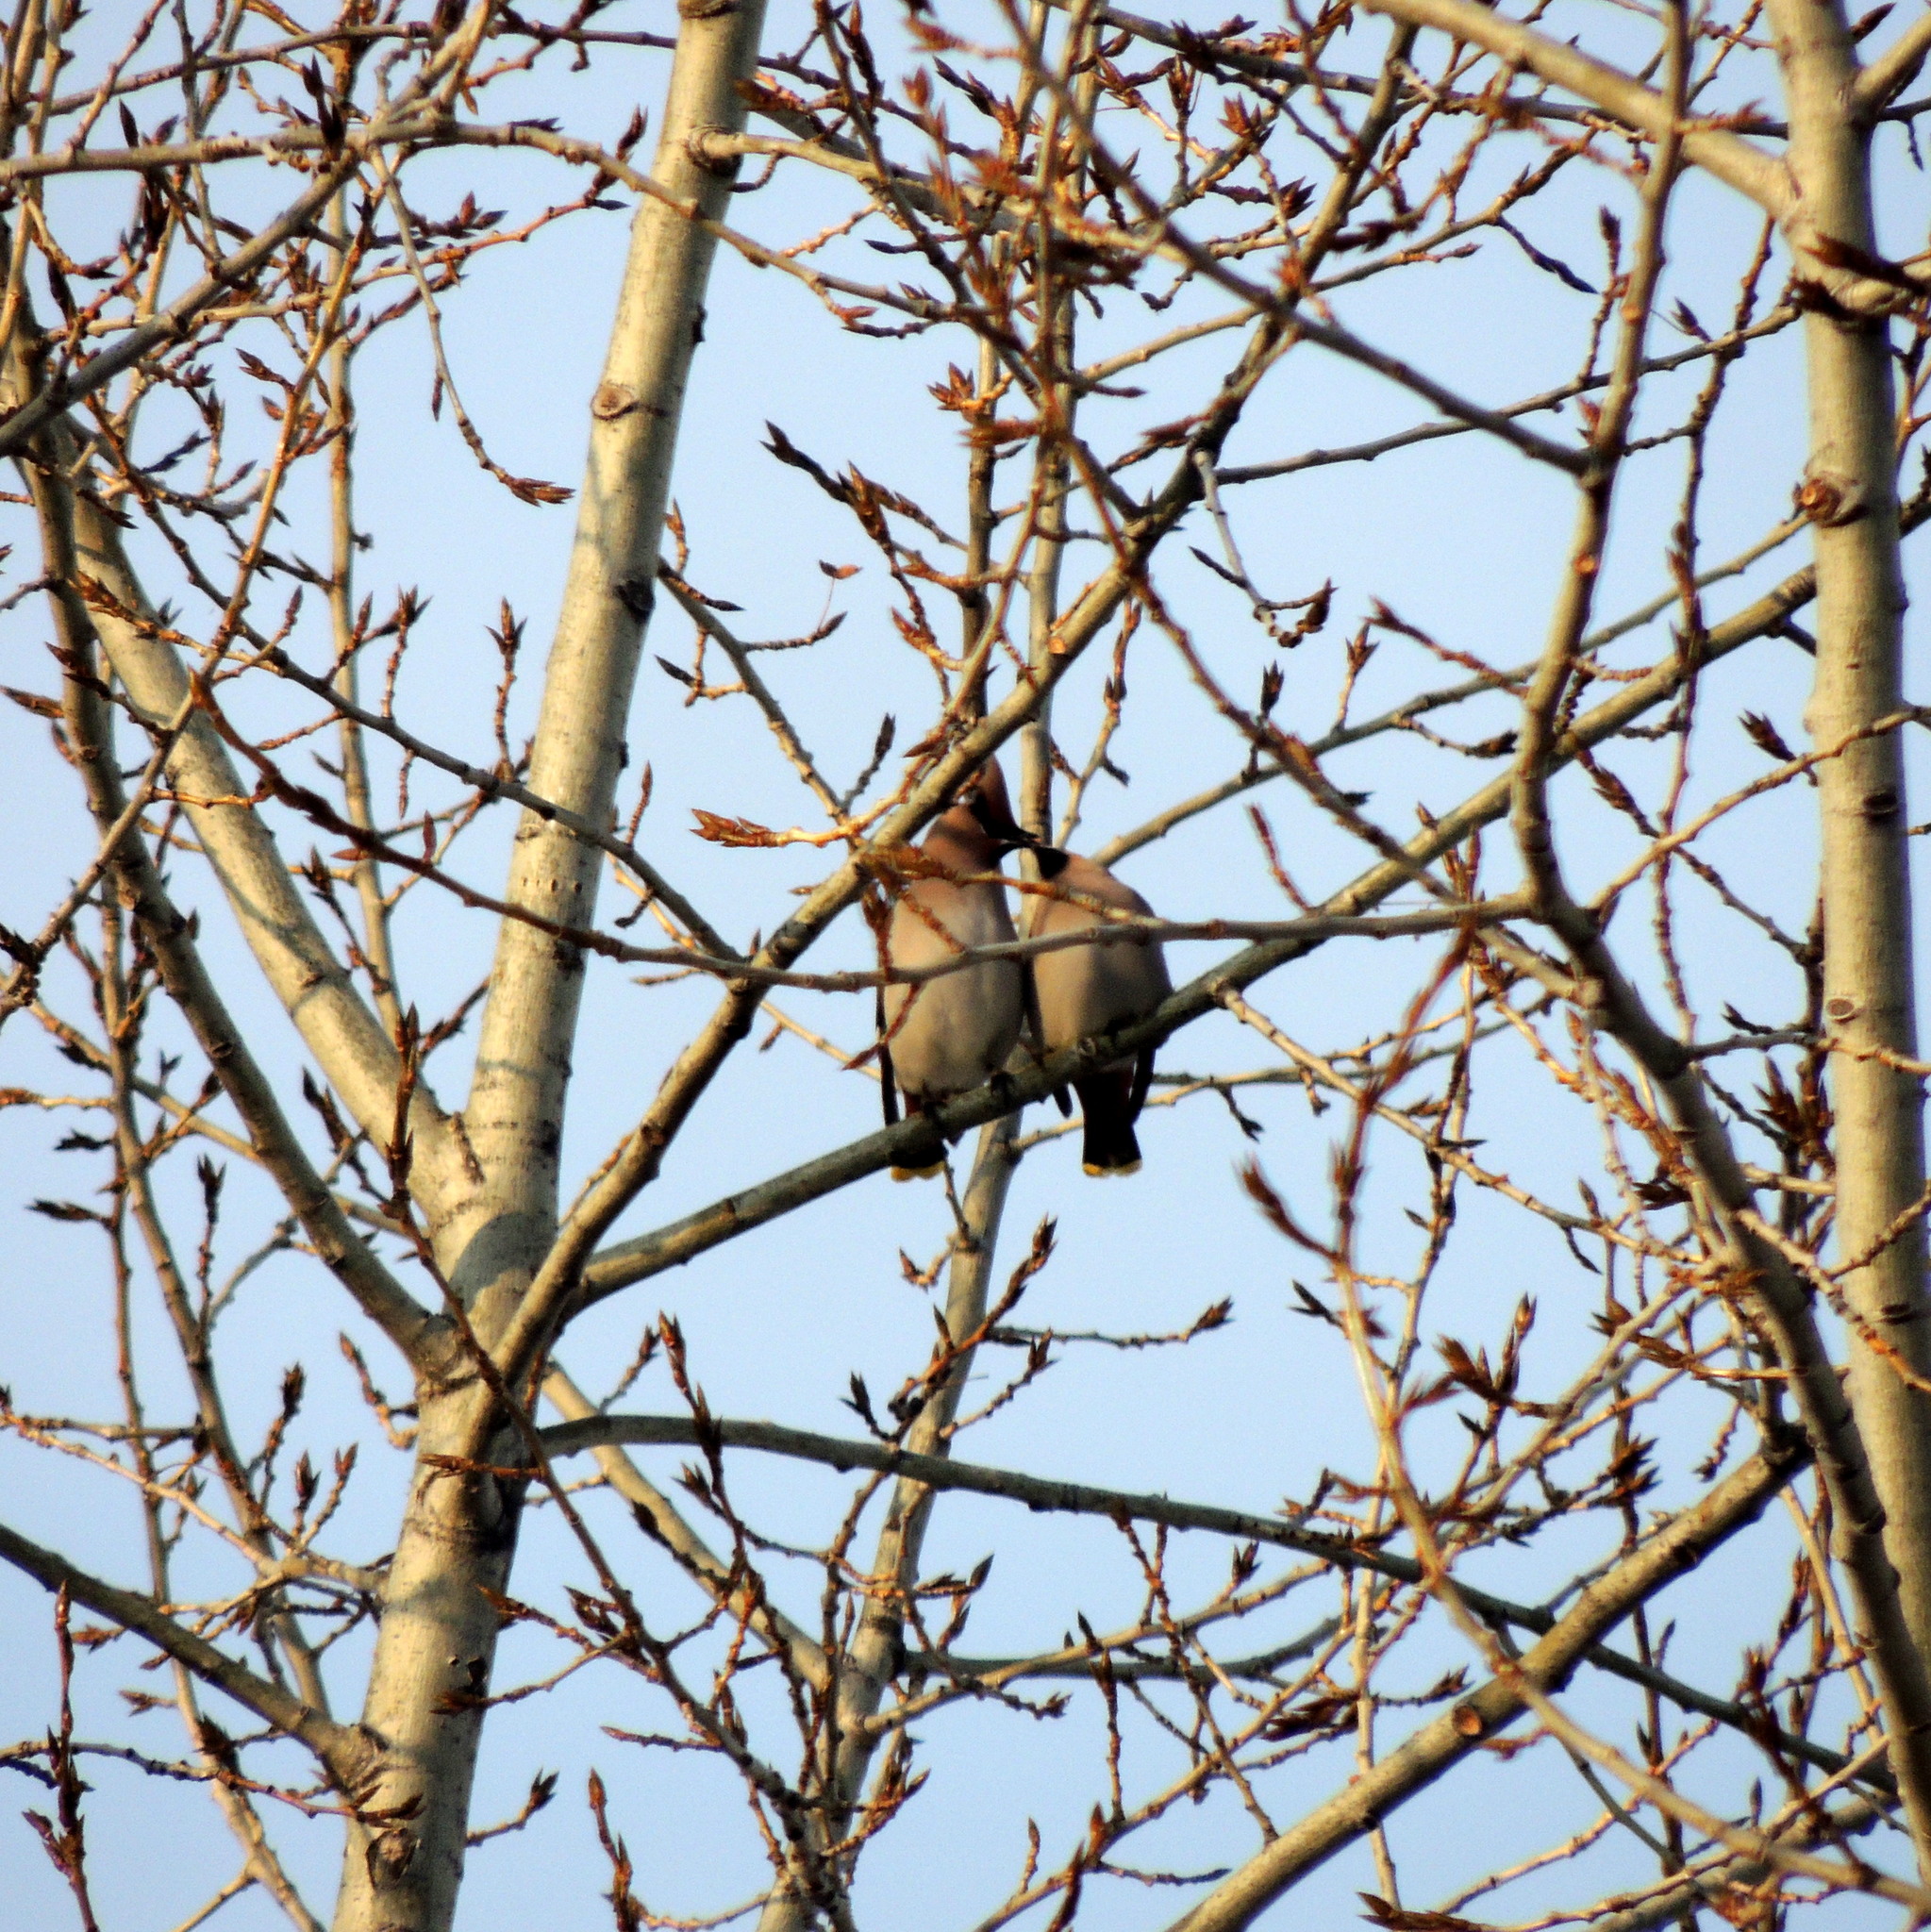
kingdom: Animalia
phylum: Chordata
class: Aves
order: Passeriformes
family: Bombycillidae
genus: Bombycilla
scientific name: Bombycilla garrulus
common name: Bohemian waxwing
